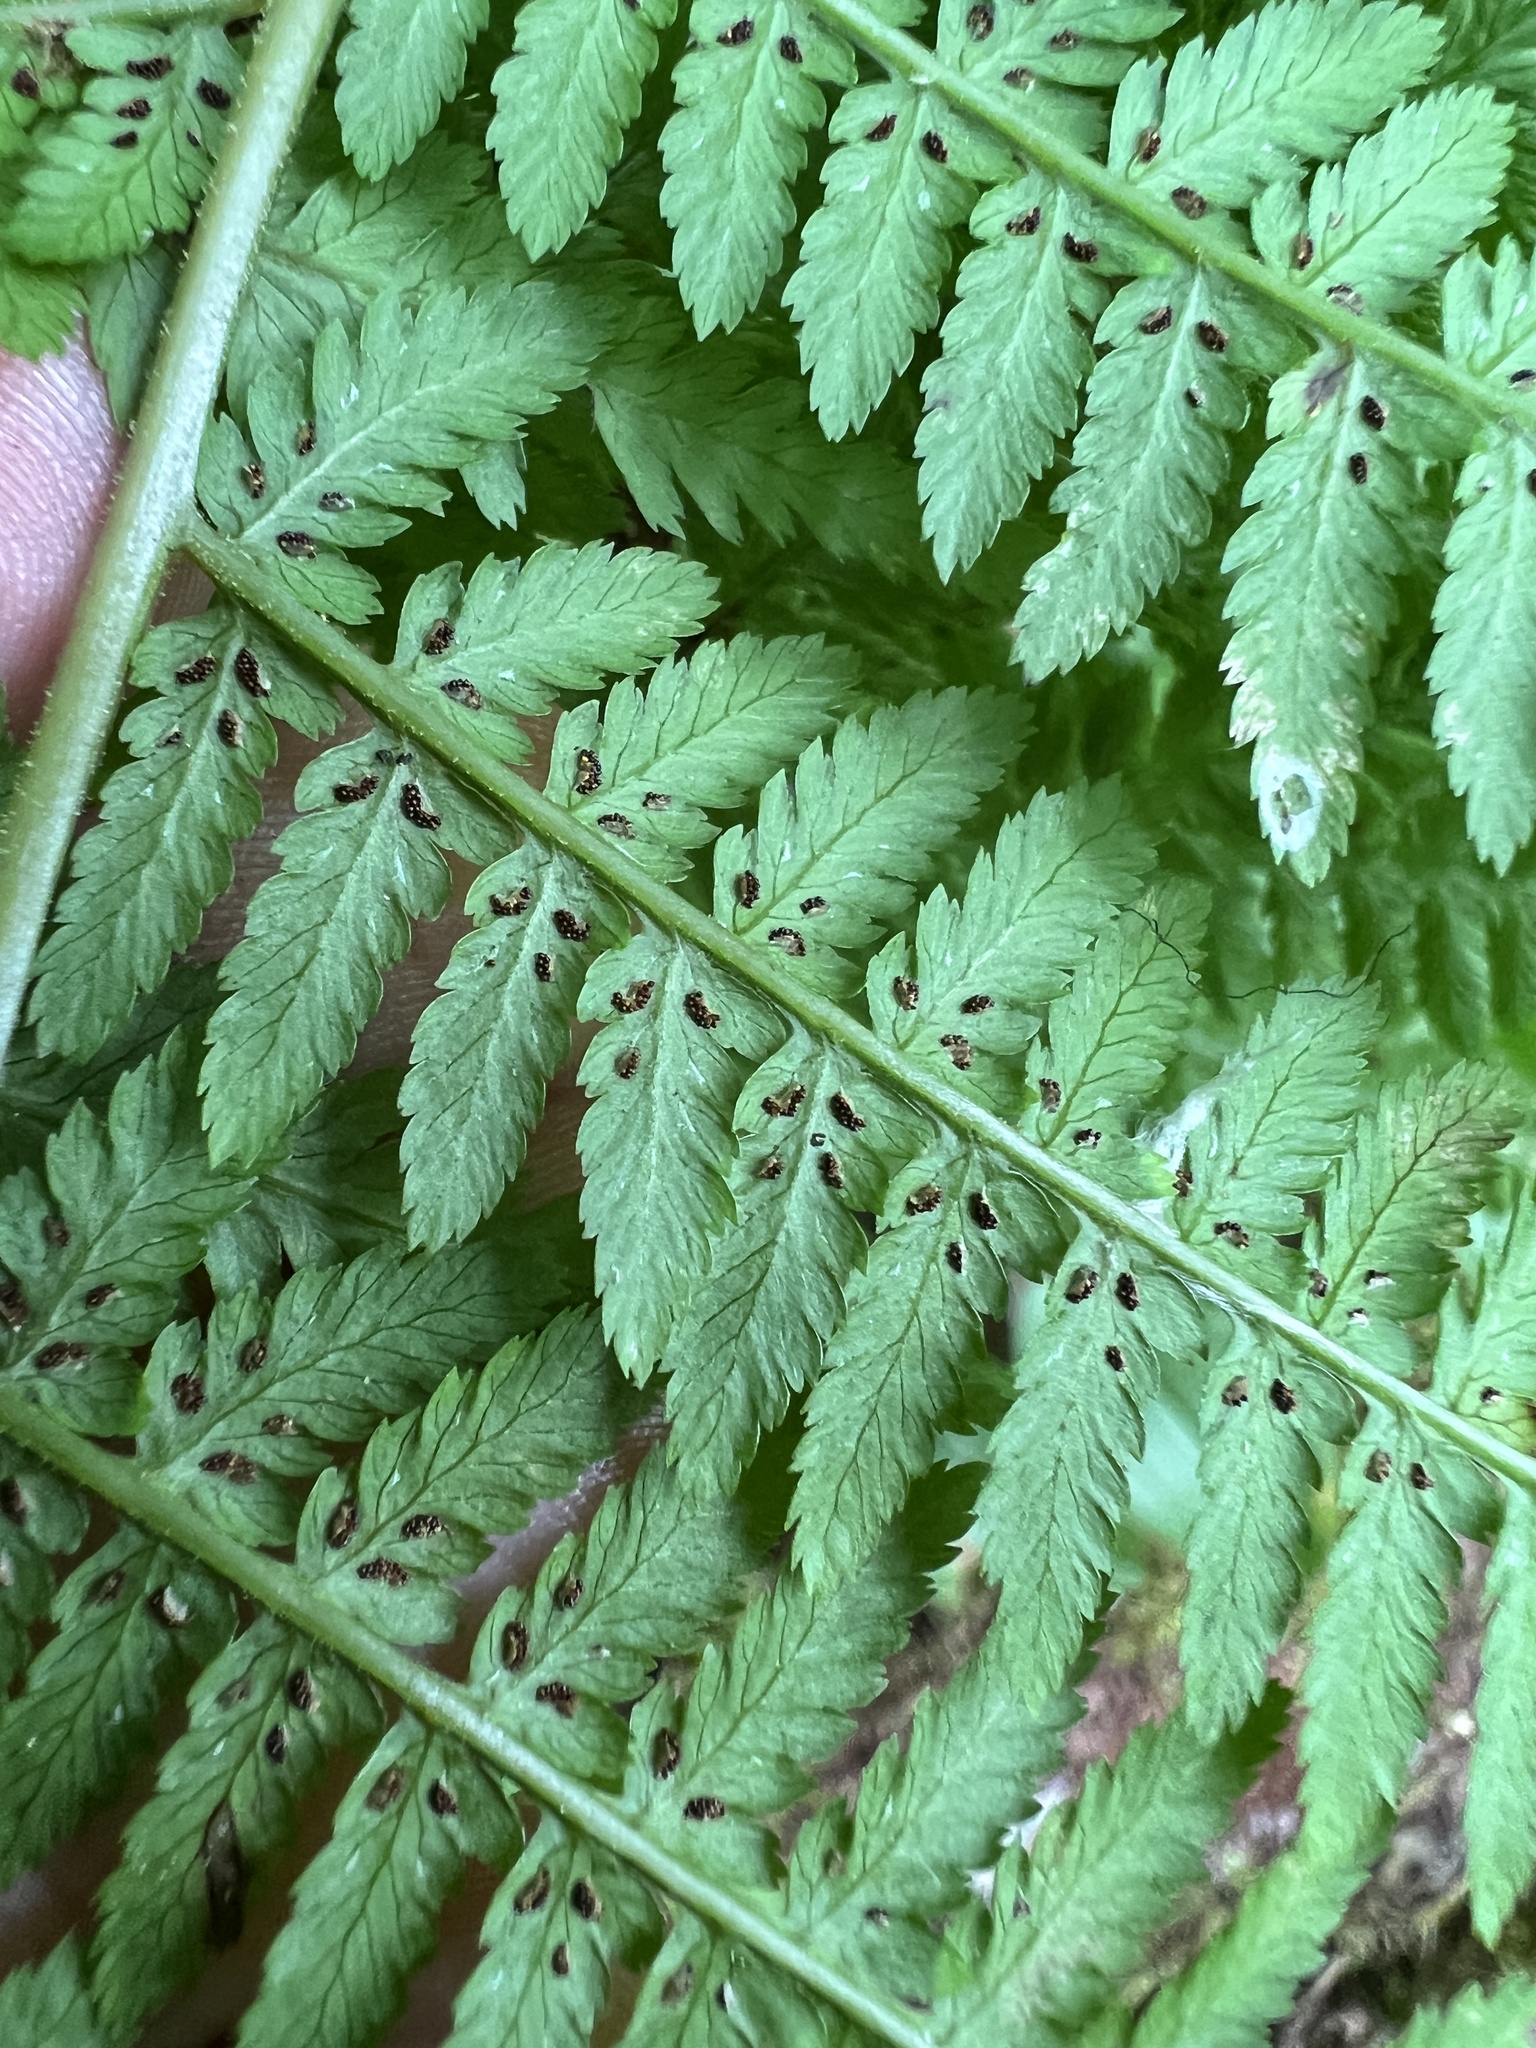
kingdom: Plantae
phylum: Tracheophyta
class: Polypodiopsida
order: Polypodiales
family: Athyriaceae
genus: Athyrium
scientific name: Athyrium angustum
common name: Northern lady fern
